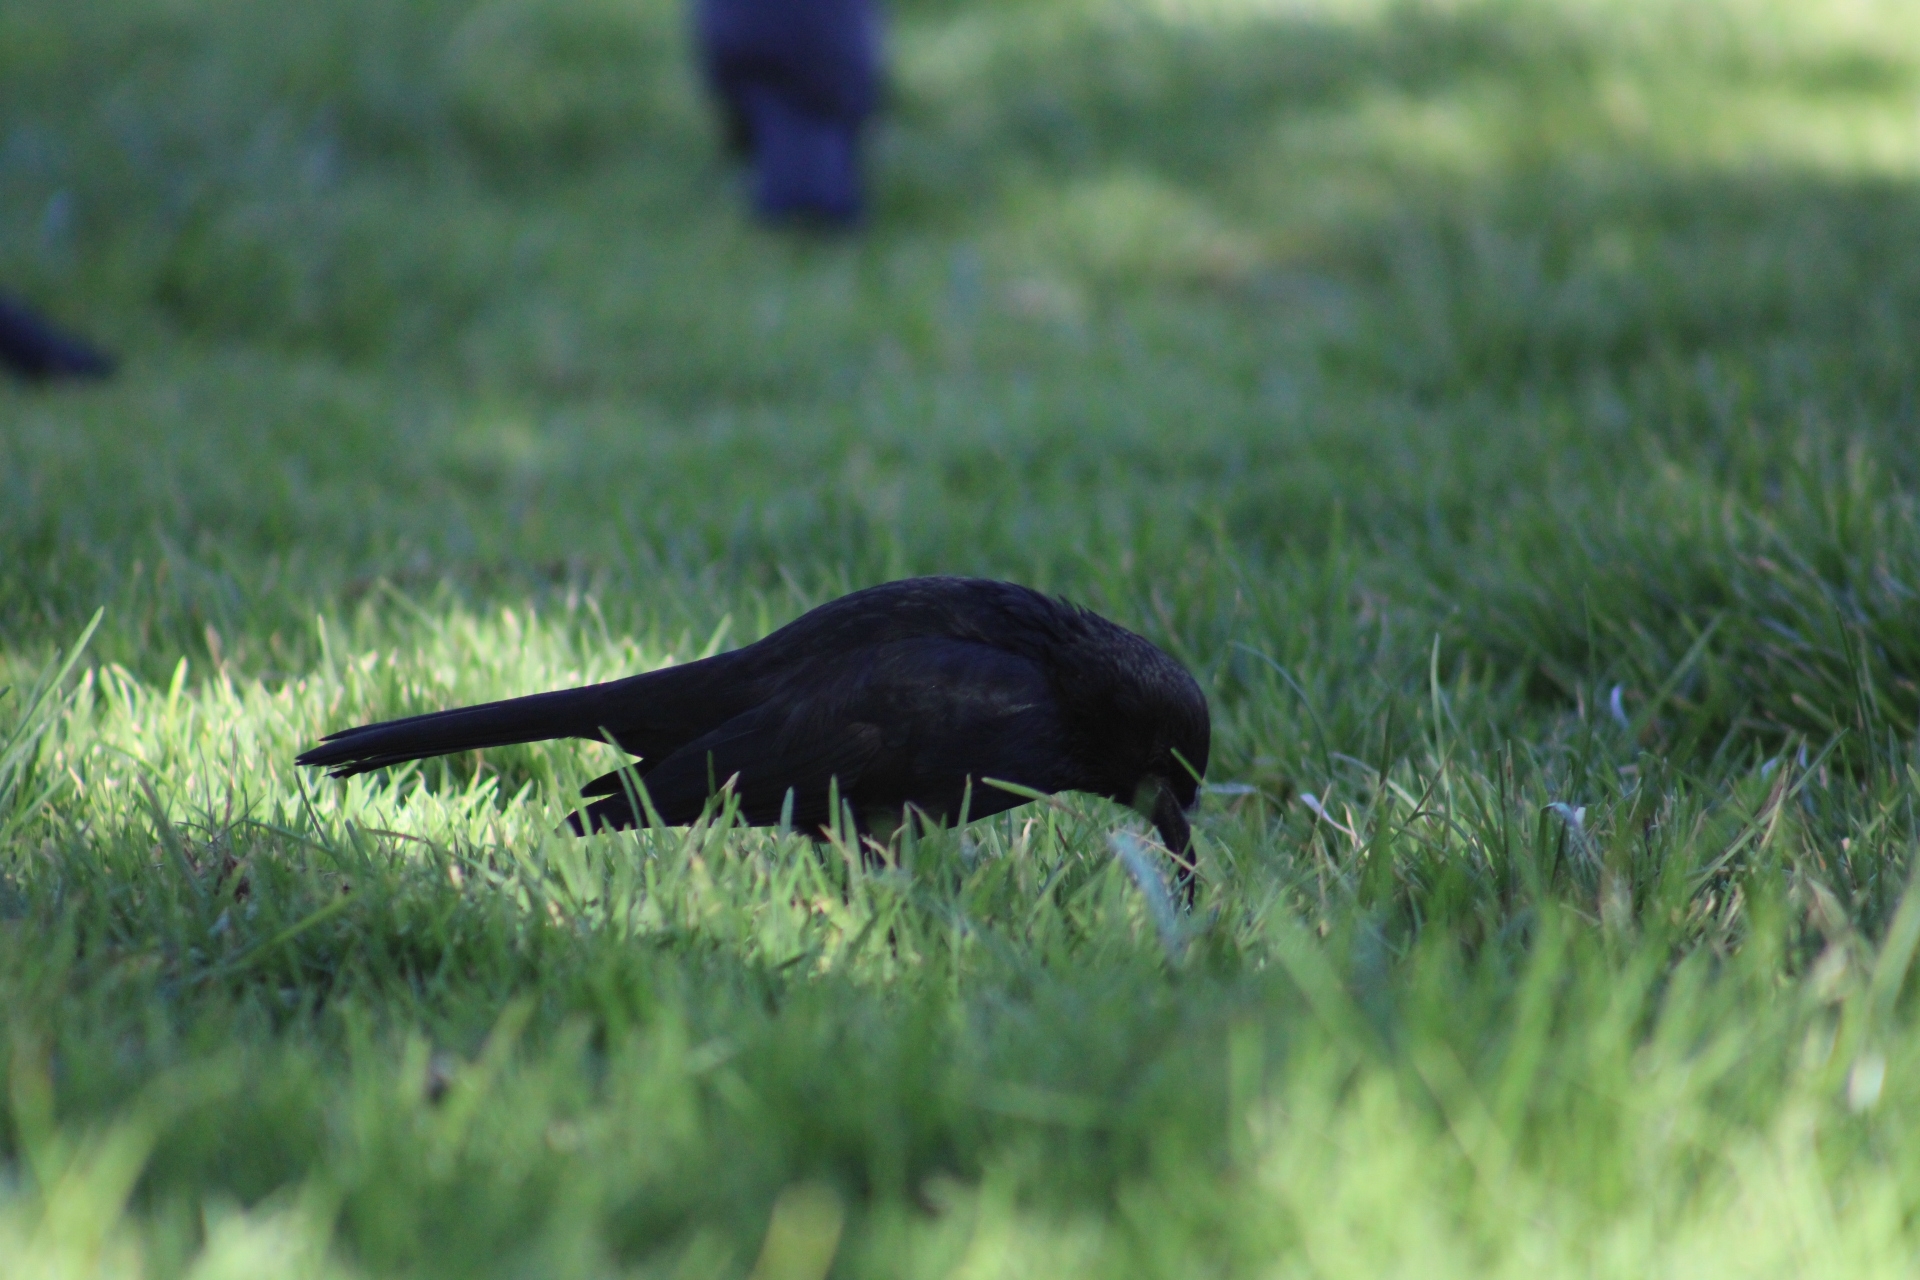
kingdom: Animalia
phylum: Chordata
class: Aves
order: Passeriformes
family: Icteridae
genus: Curaeus
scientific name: Curaeus curaeus
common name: Austral blackbird
